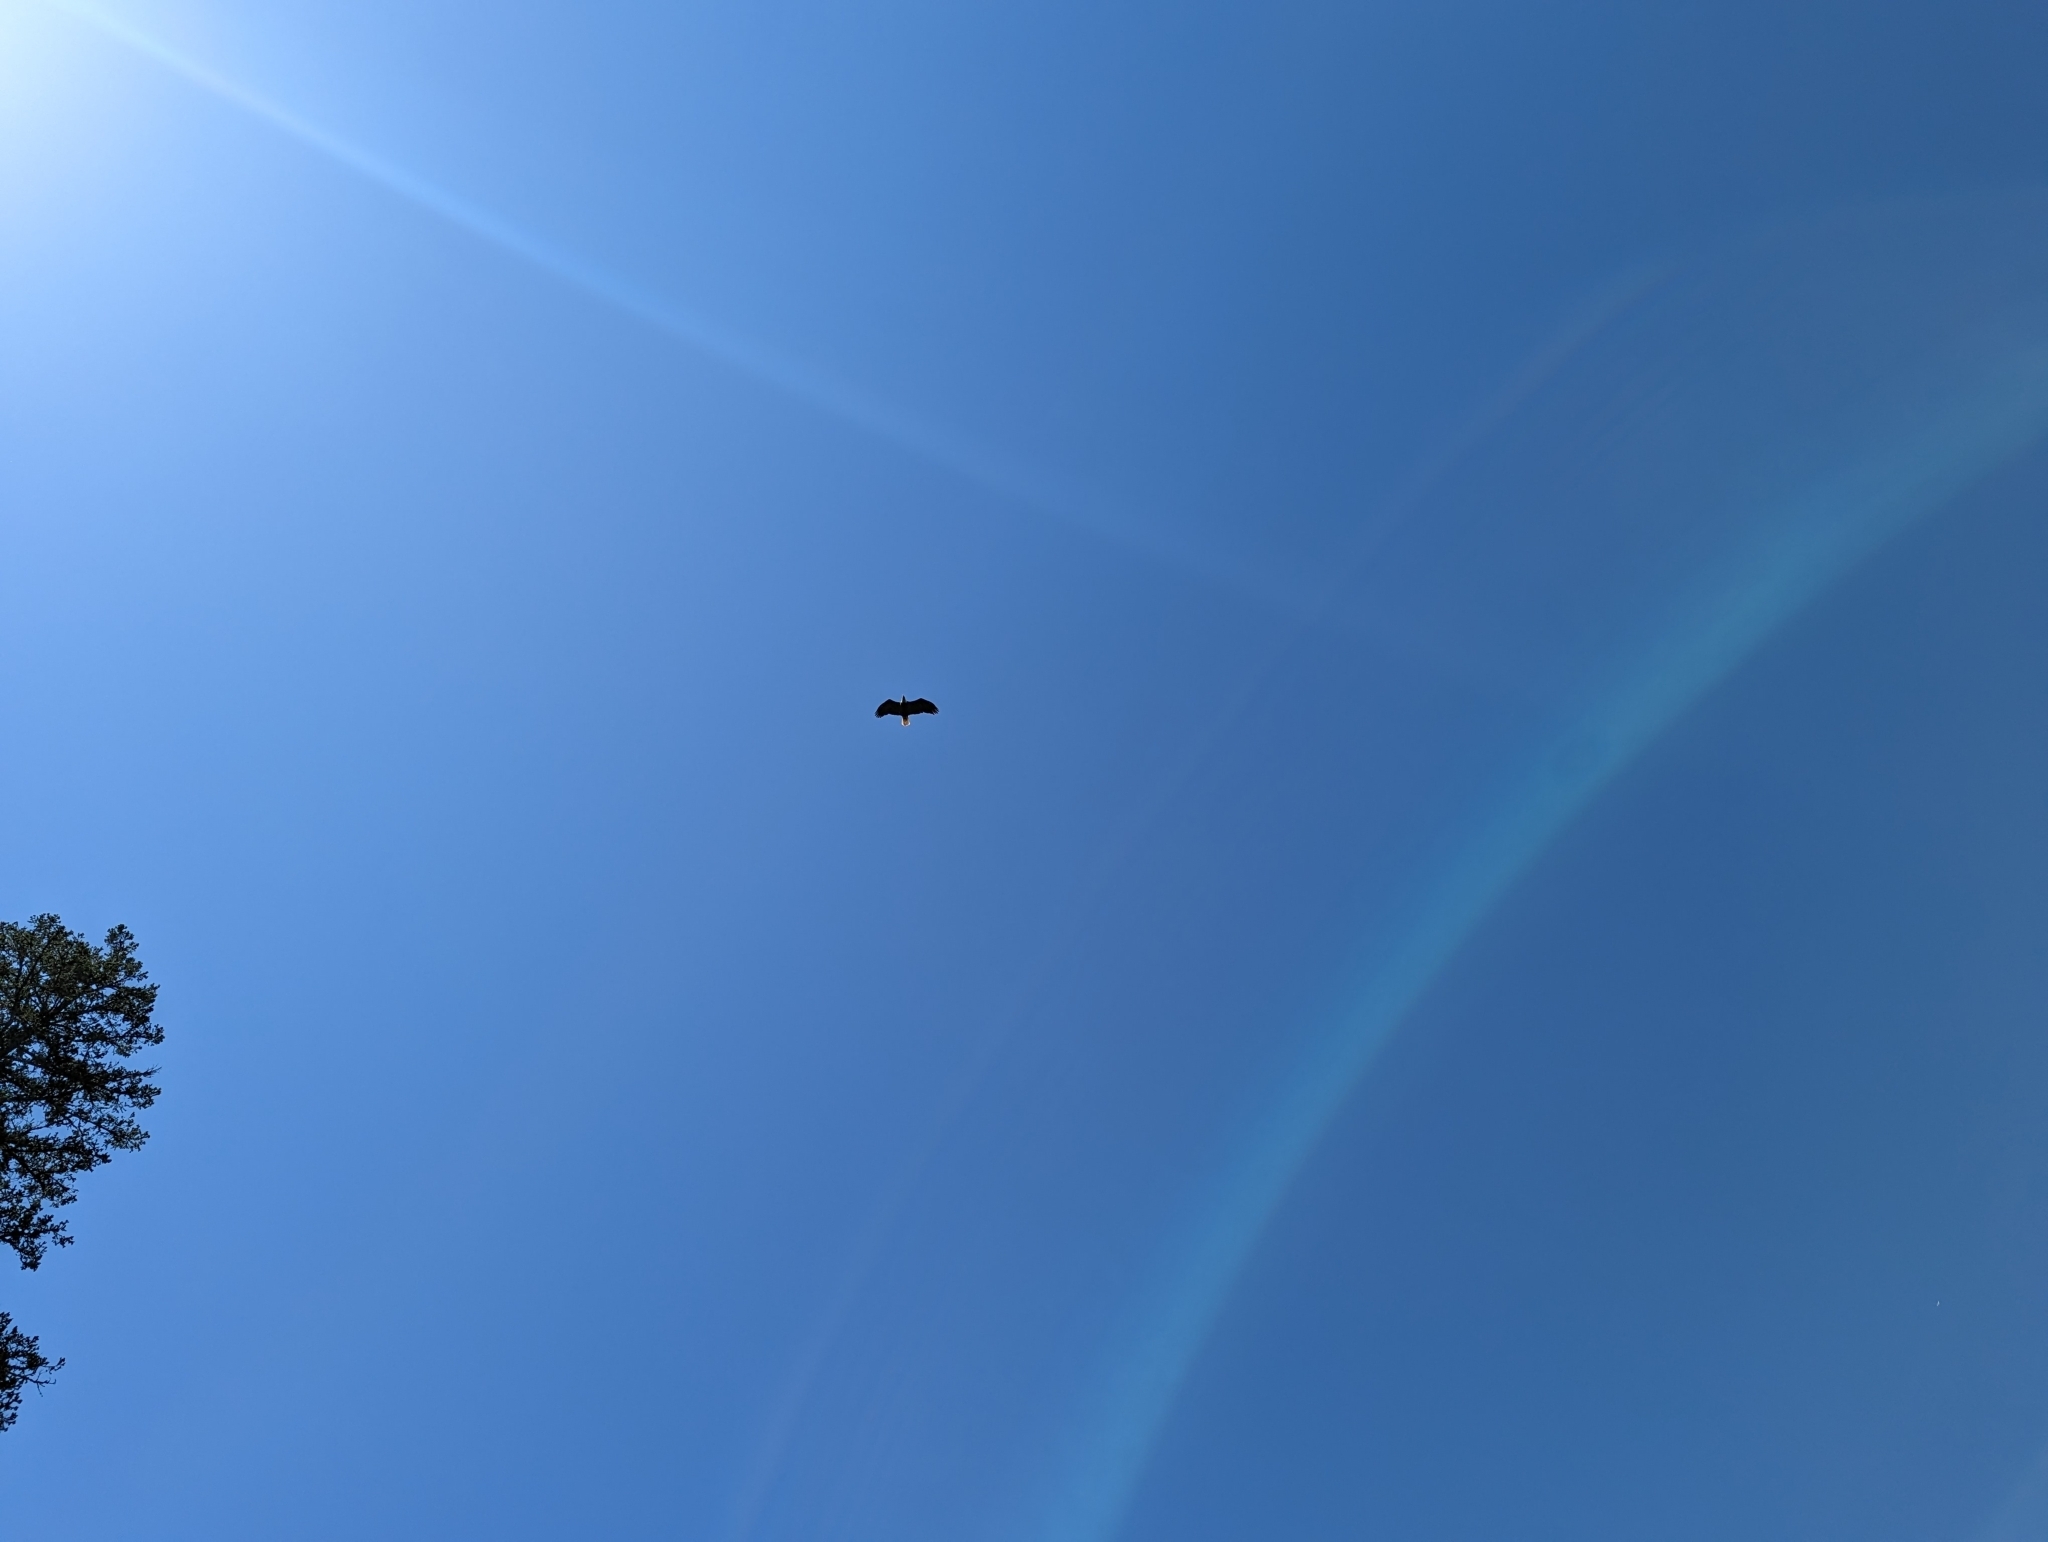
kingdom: Animalia
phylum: Chordata
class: Aves
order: Accipitriformes
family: Accipitridae
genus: Haliaeetus
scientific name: Haliaeetus leucocephalus
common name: Bald eagle
